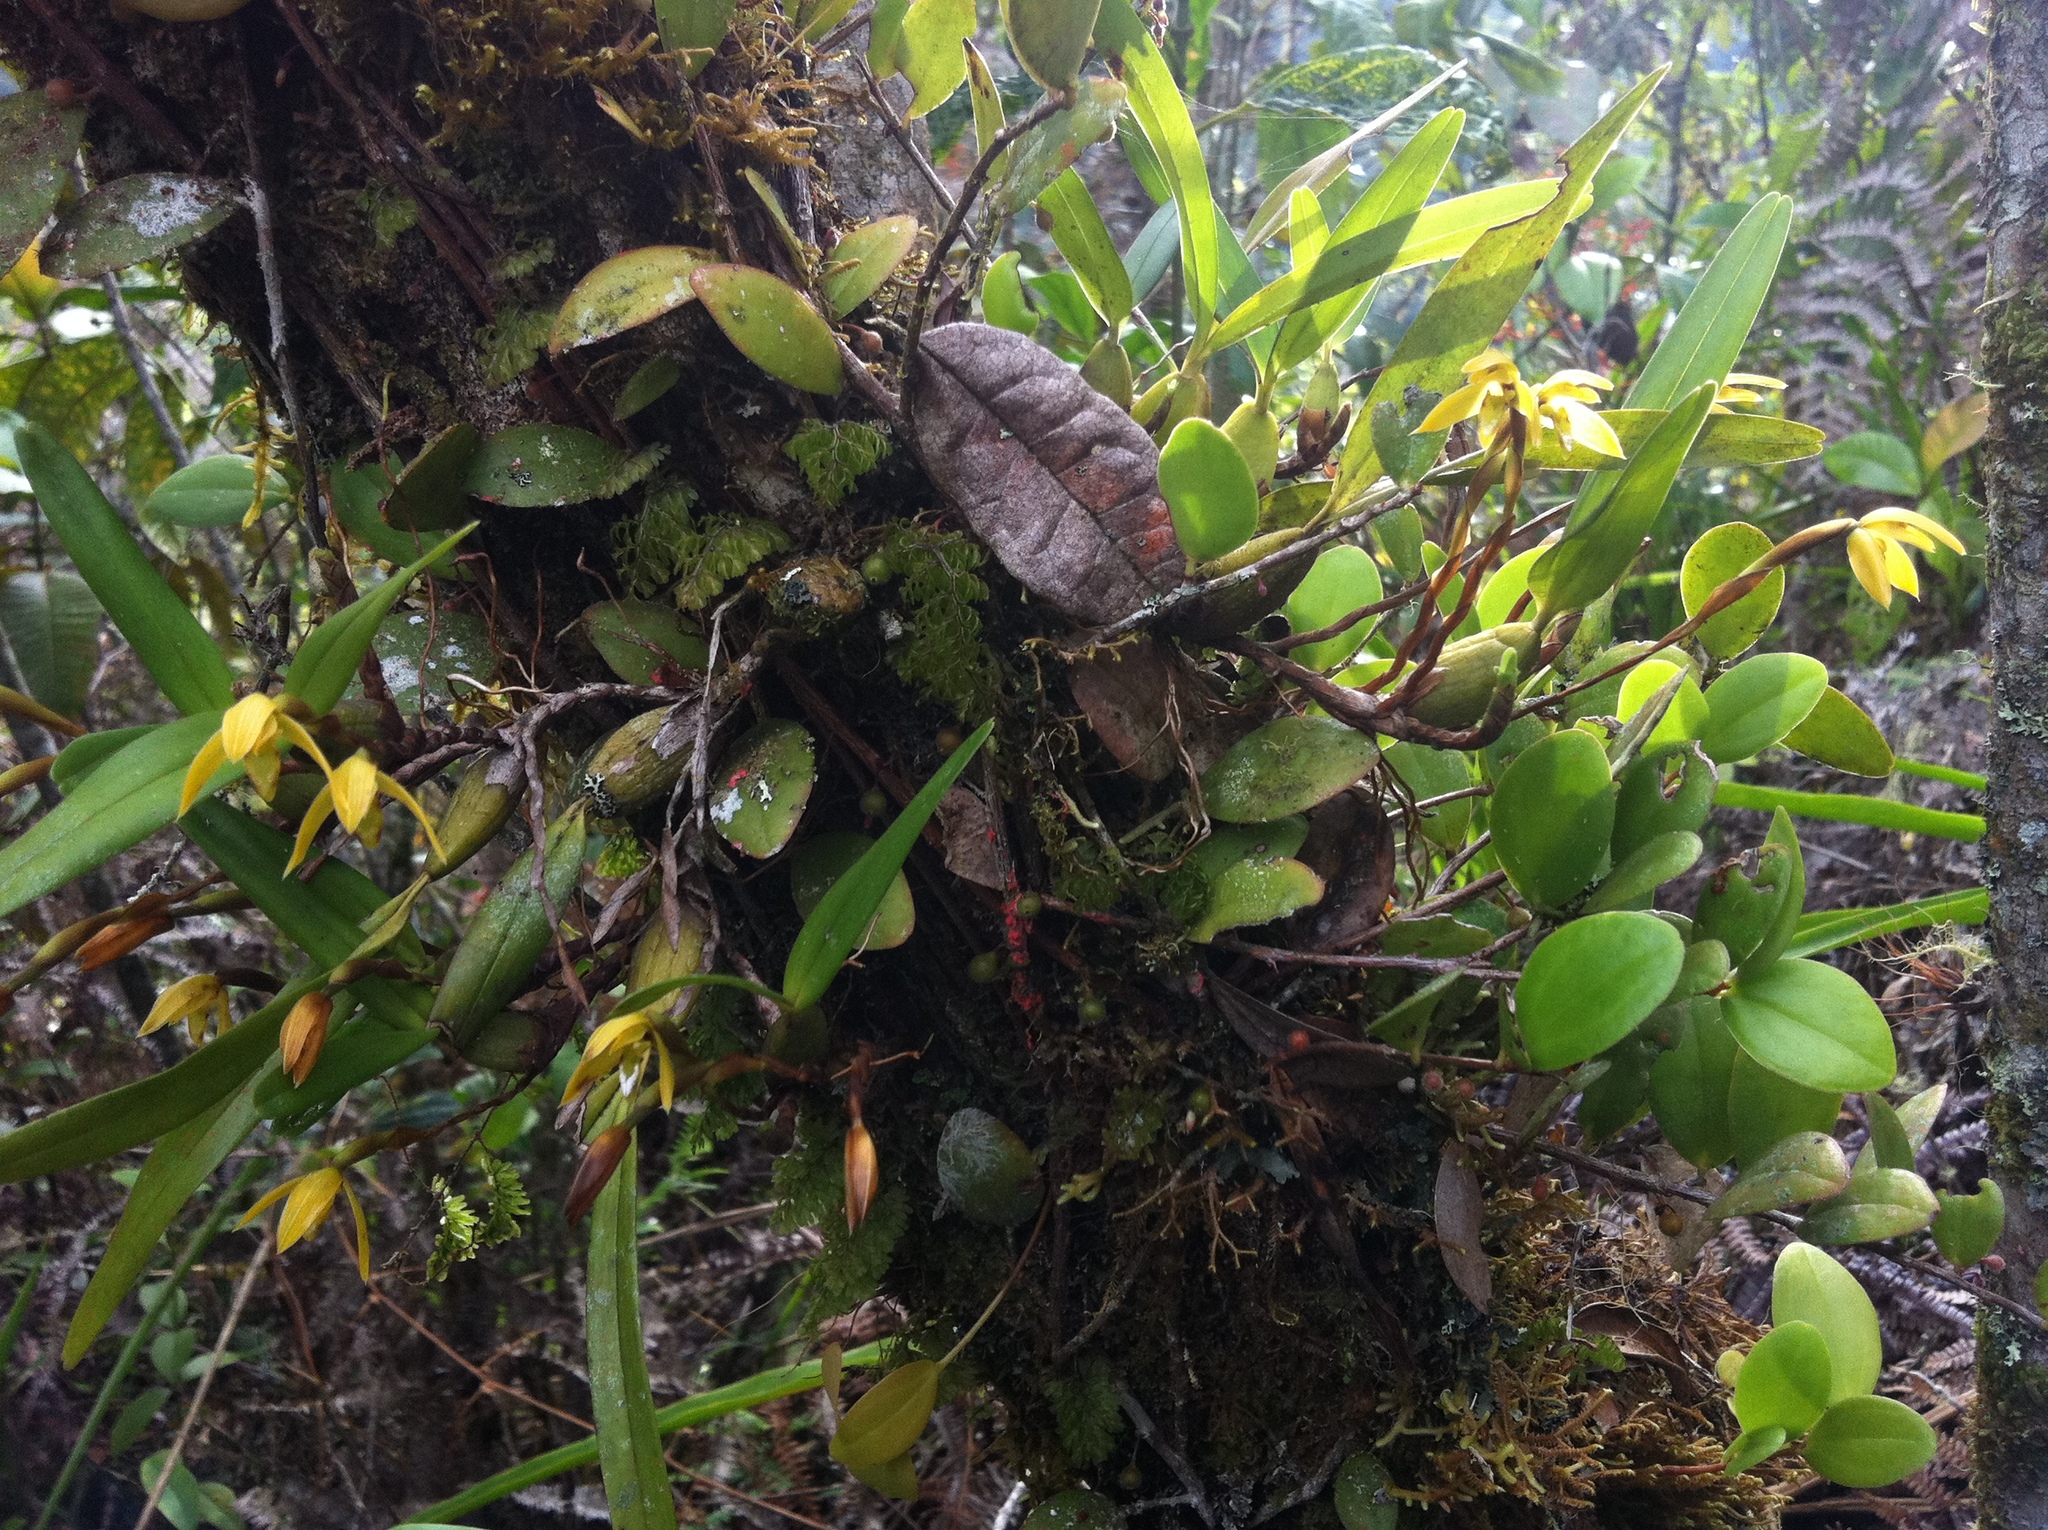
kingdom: Plantae
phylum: Tracheophyta
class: Liliopsida
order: Asparagales
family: Orchidaceae
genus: Maxillaria
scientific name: Maxillaria notylioglossa
